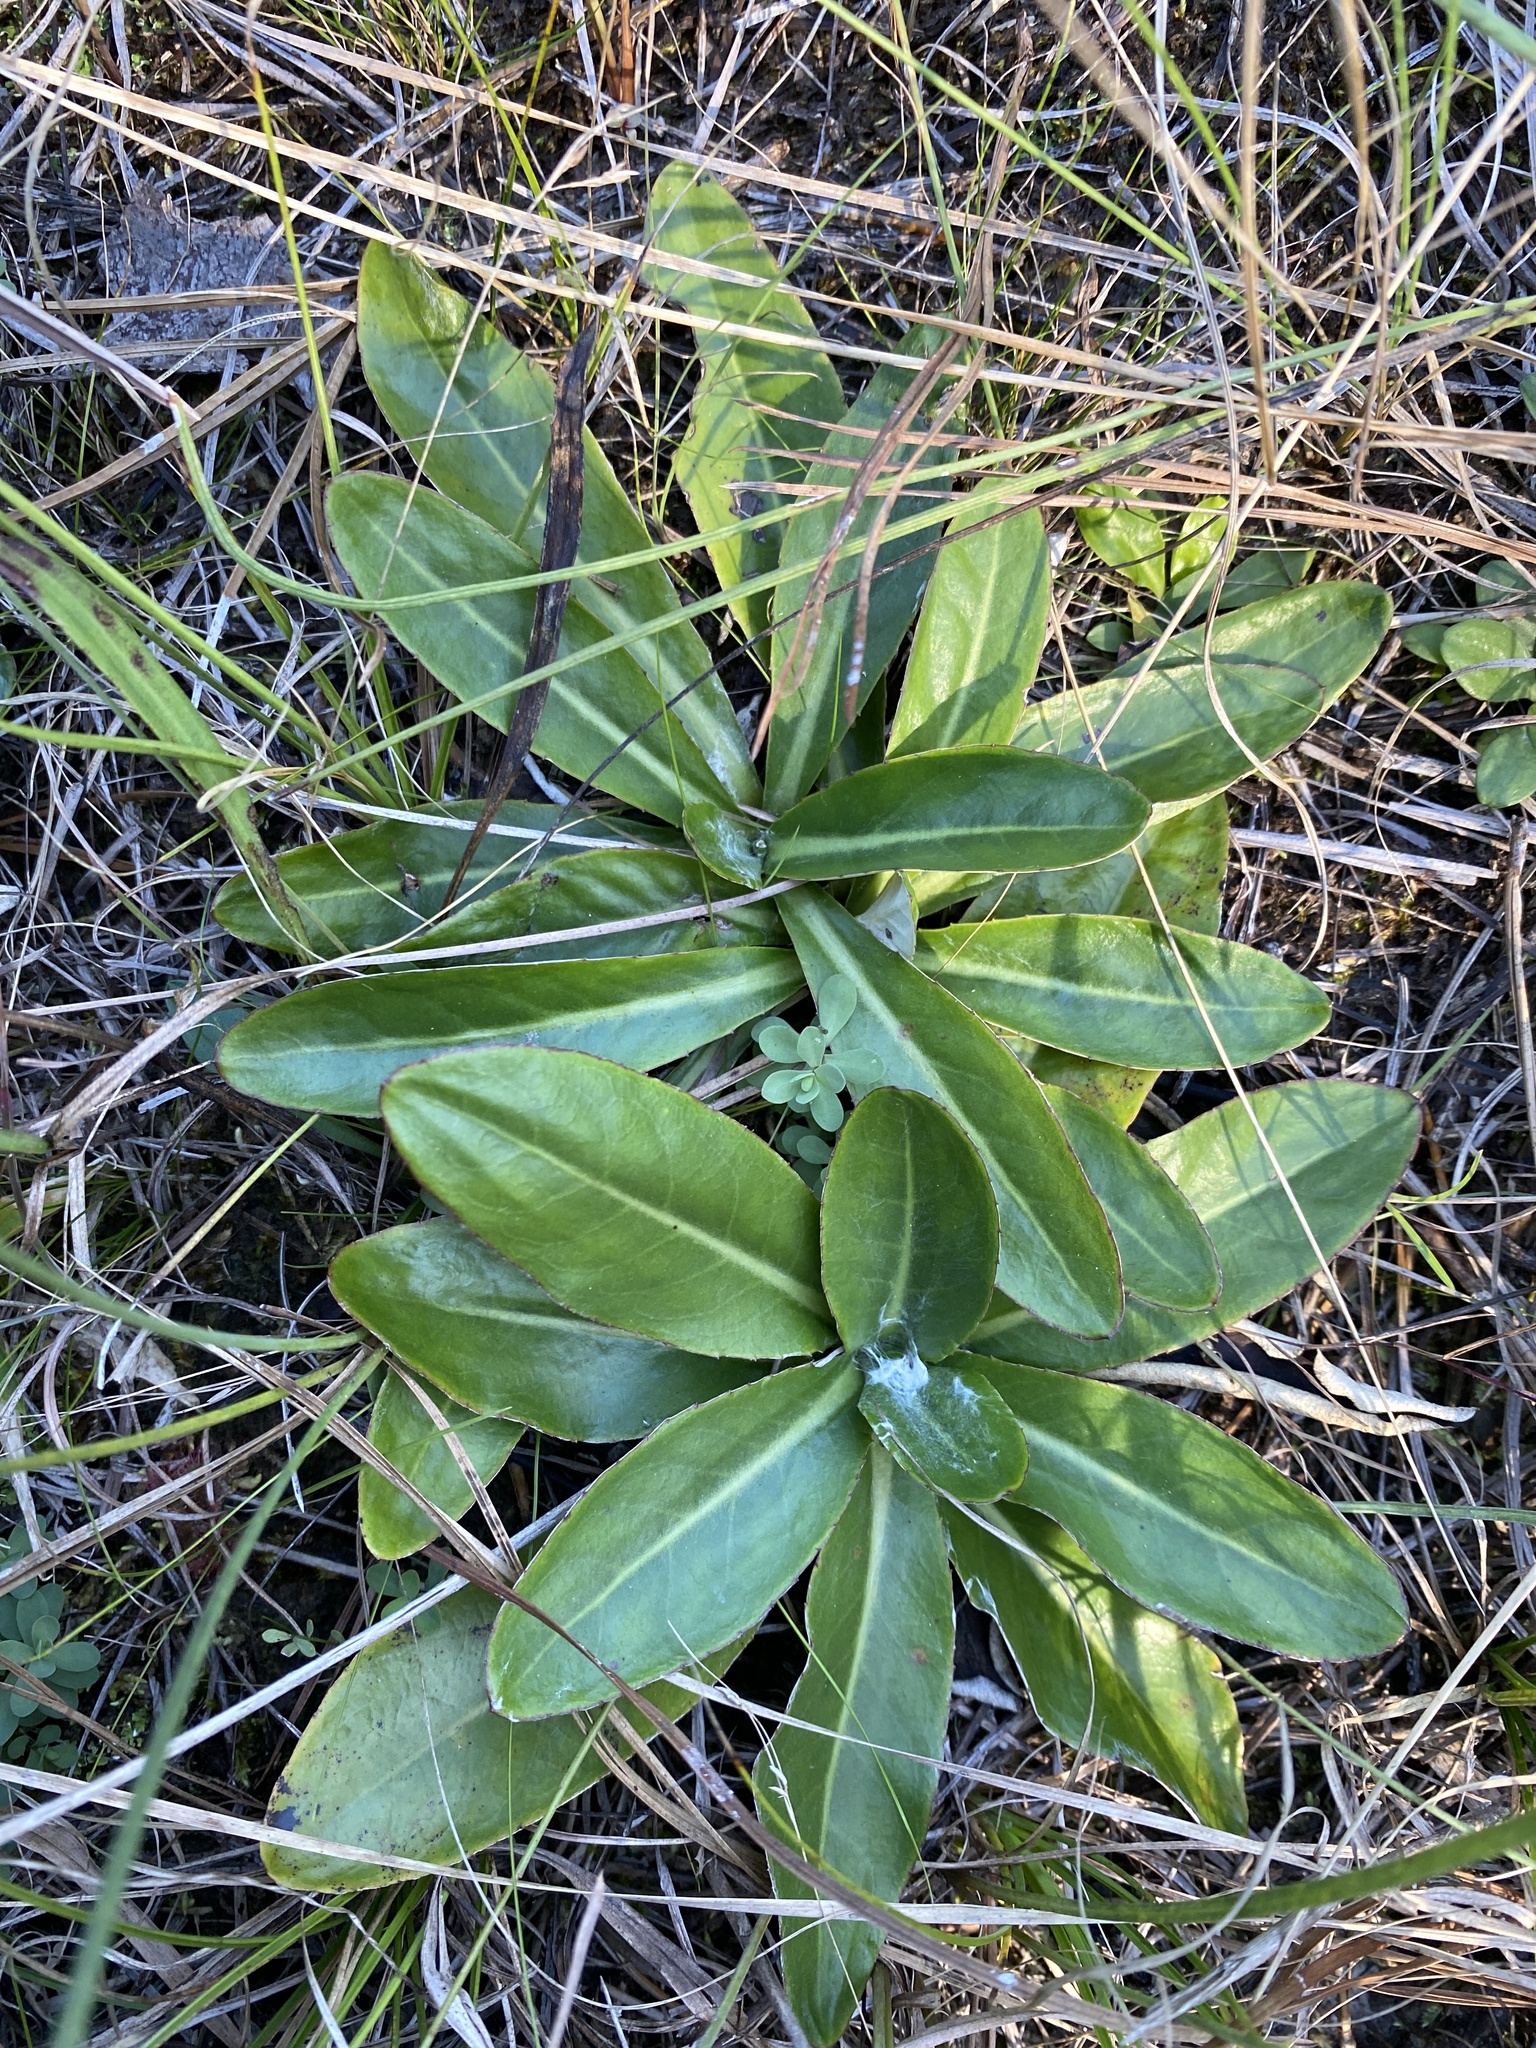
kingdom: Plantae
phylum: Tracheophyta
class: Magnoliopsida
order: Asterales
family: Asteraceae
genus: Chaptalia
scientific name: Chaptalia tomentosa
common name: Woolly sunbonnet
